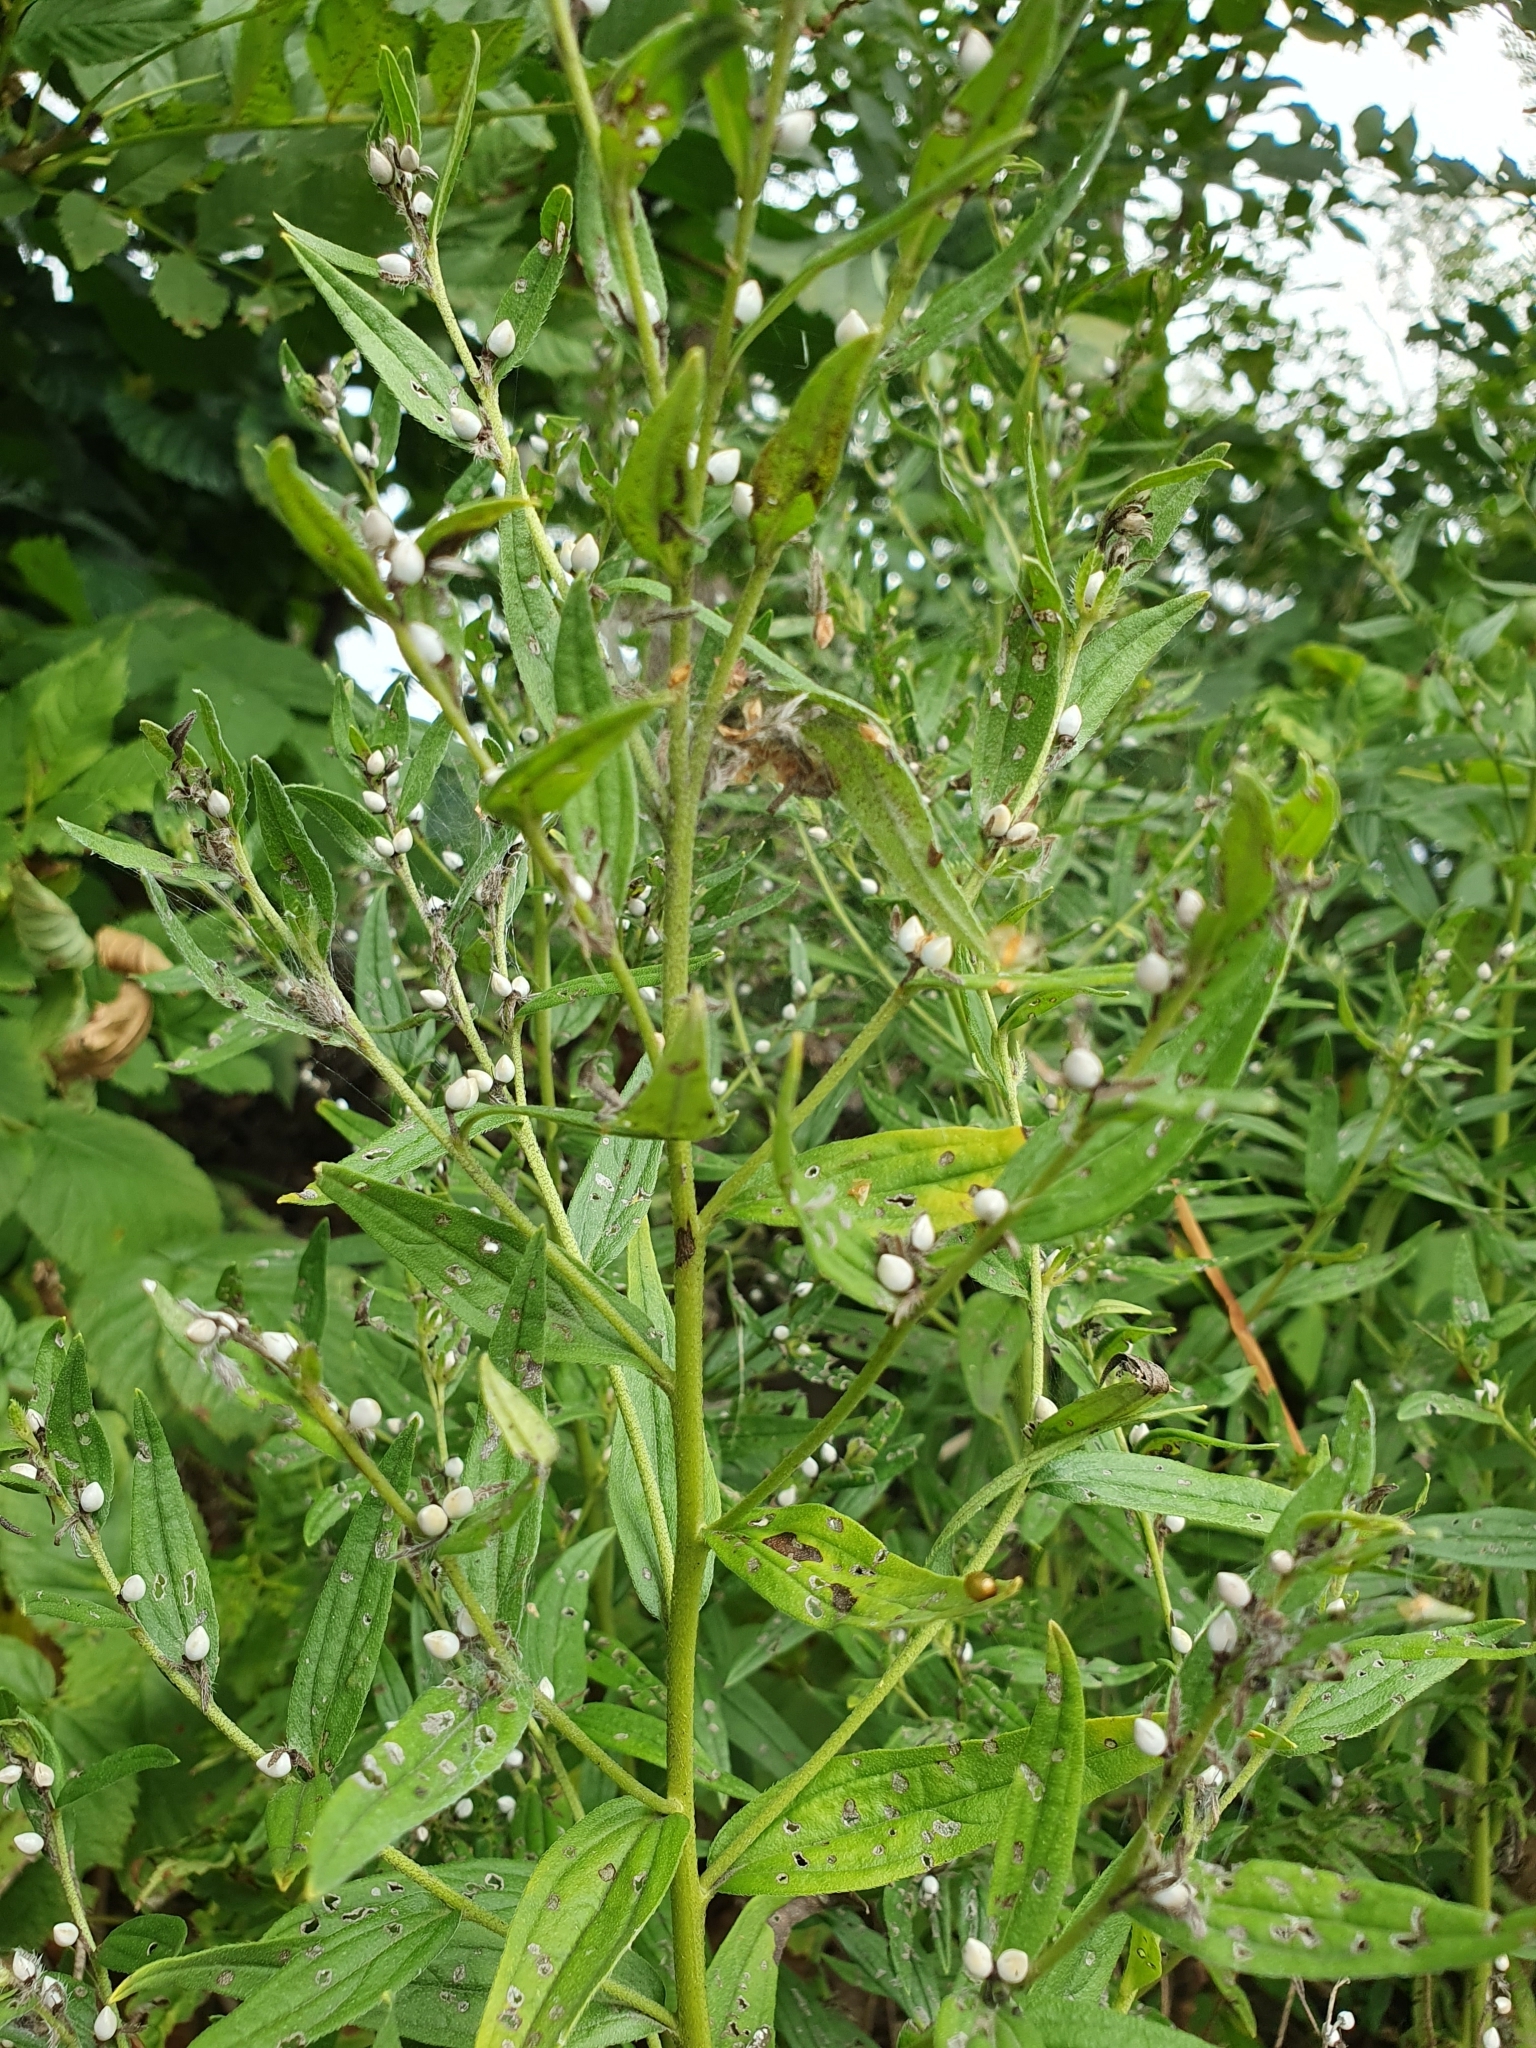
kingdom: Plantae
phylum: Tracheophyta
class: Magnoliopsida
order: Boraginales
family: Boraginaceae
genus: Lithospermum
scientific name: Lithospermum officinale
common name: Common gromwell
